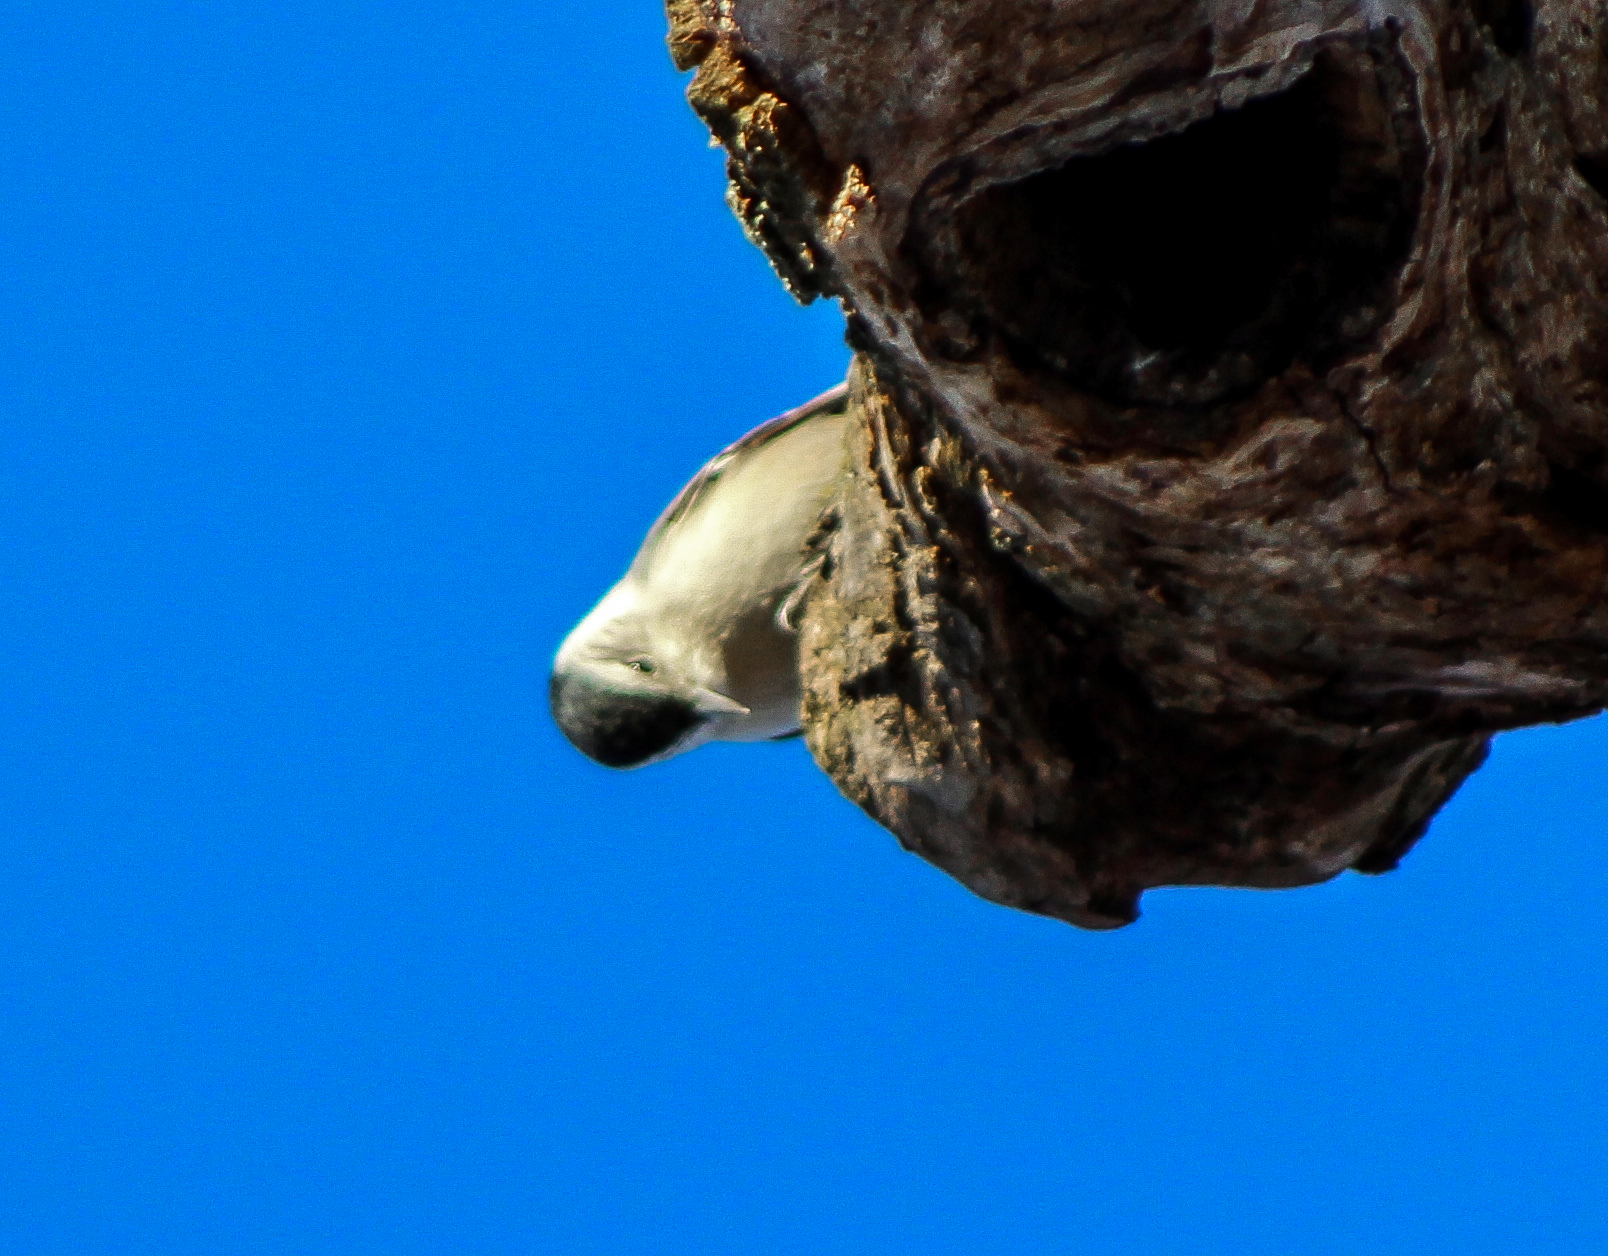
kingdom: Animalia
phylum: Chordata
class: Aves
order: Passeriformes
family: Sittidae
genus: Sitta
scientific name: Sitta carolinensis
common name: White-breasted nuthatch
